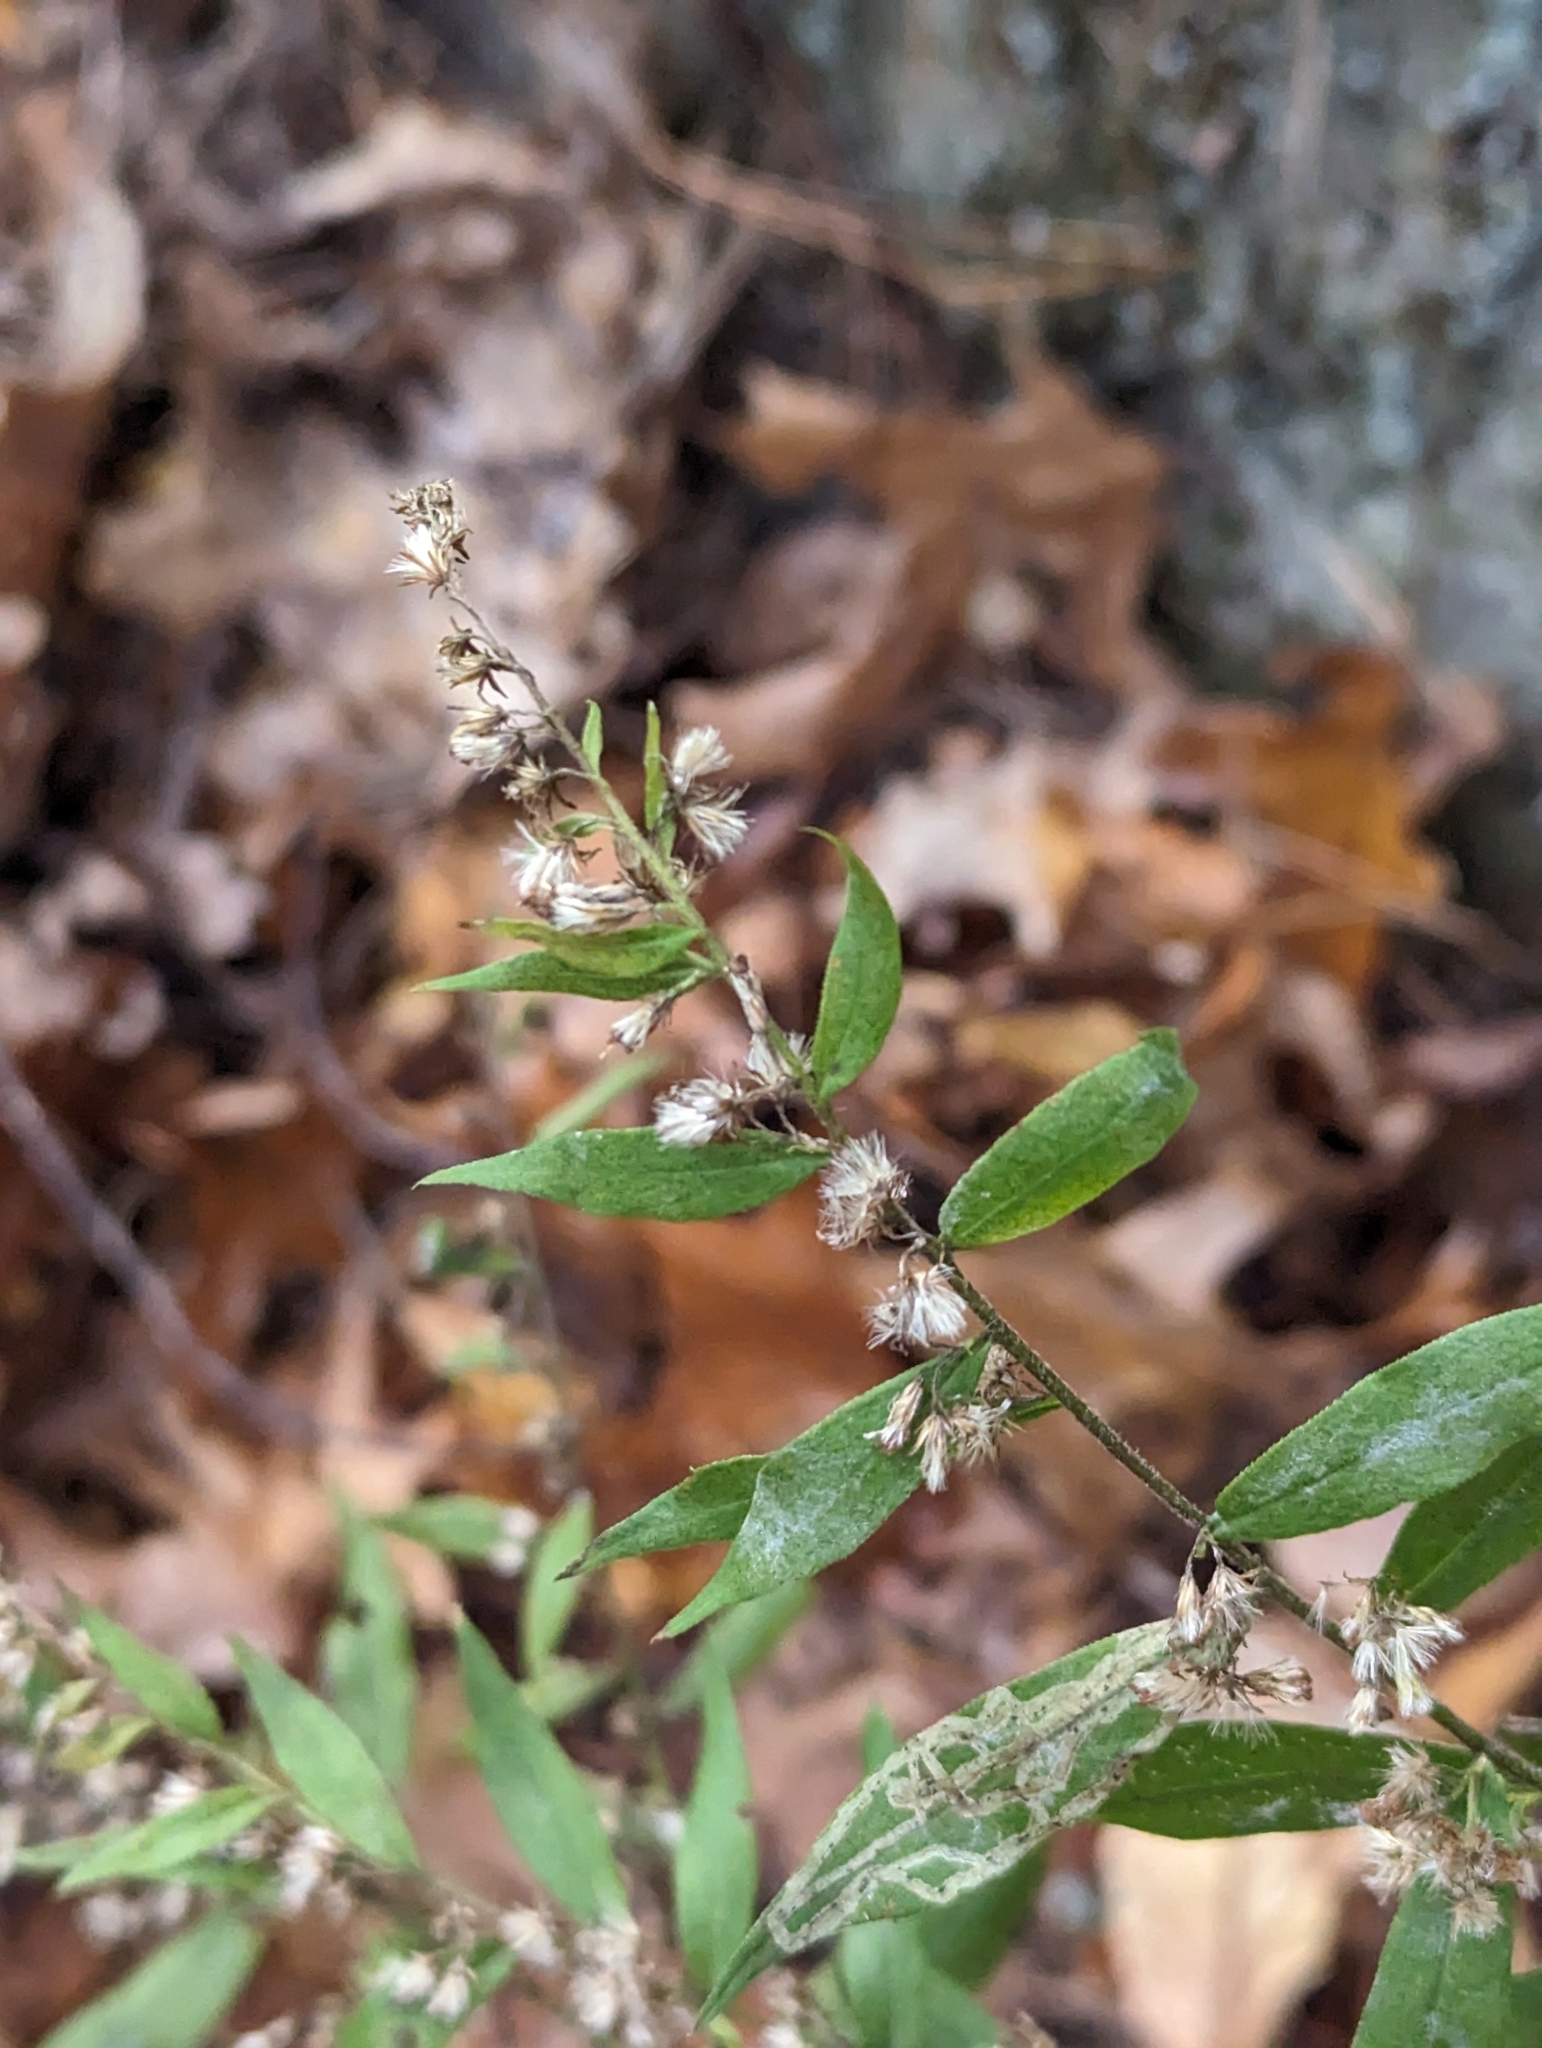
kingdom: Plantae
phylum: Tracheophyta
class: Magnoliopsida
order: Asterales
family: Asteraceae
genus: Solidago
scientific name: Solidago caesia
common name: Woodland goldenrod
